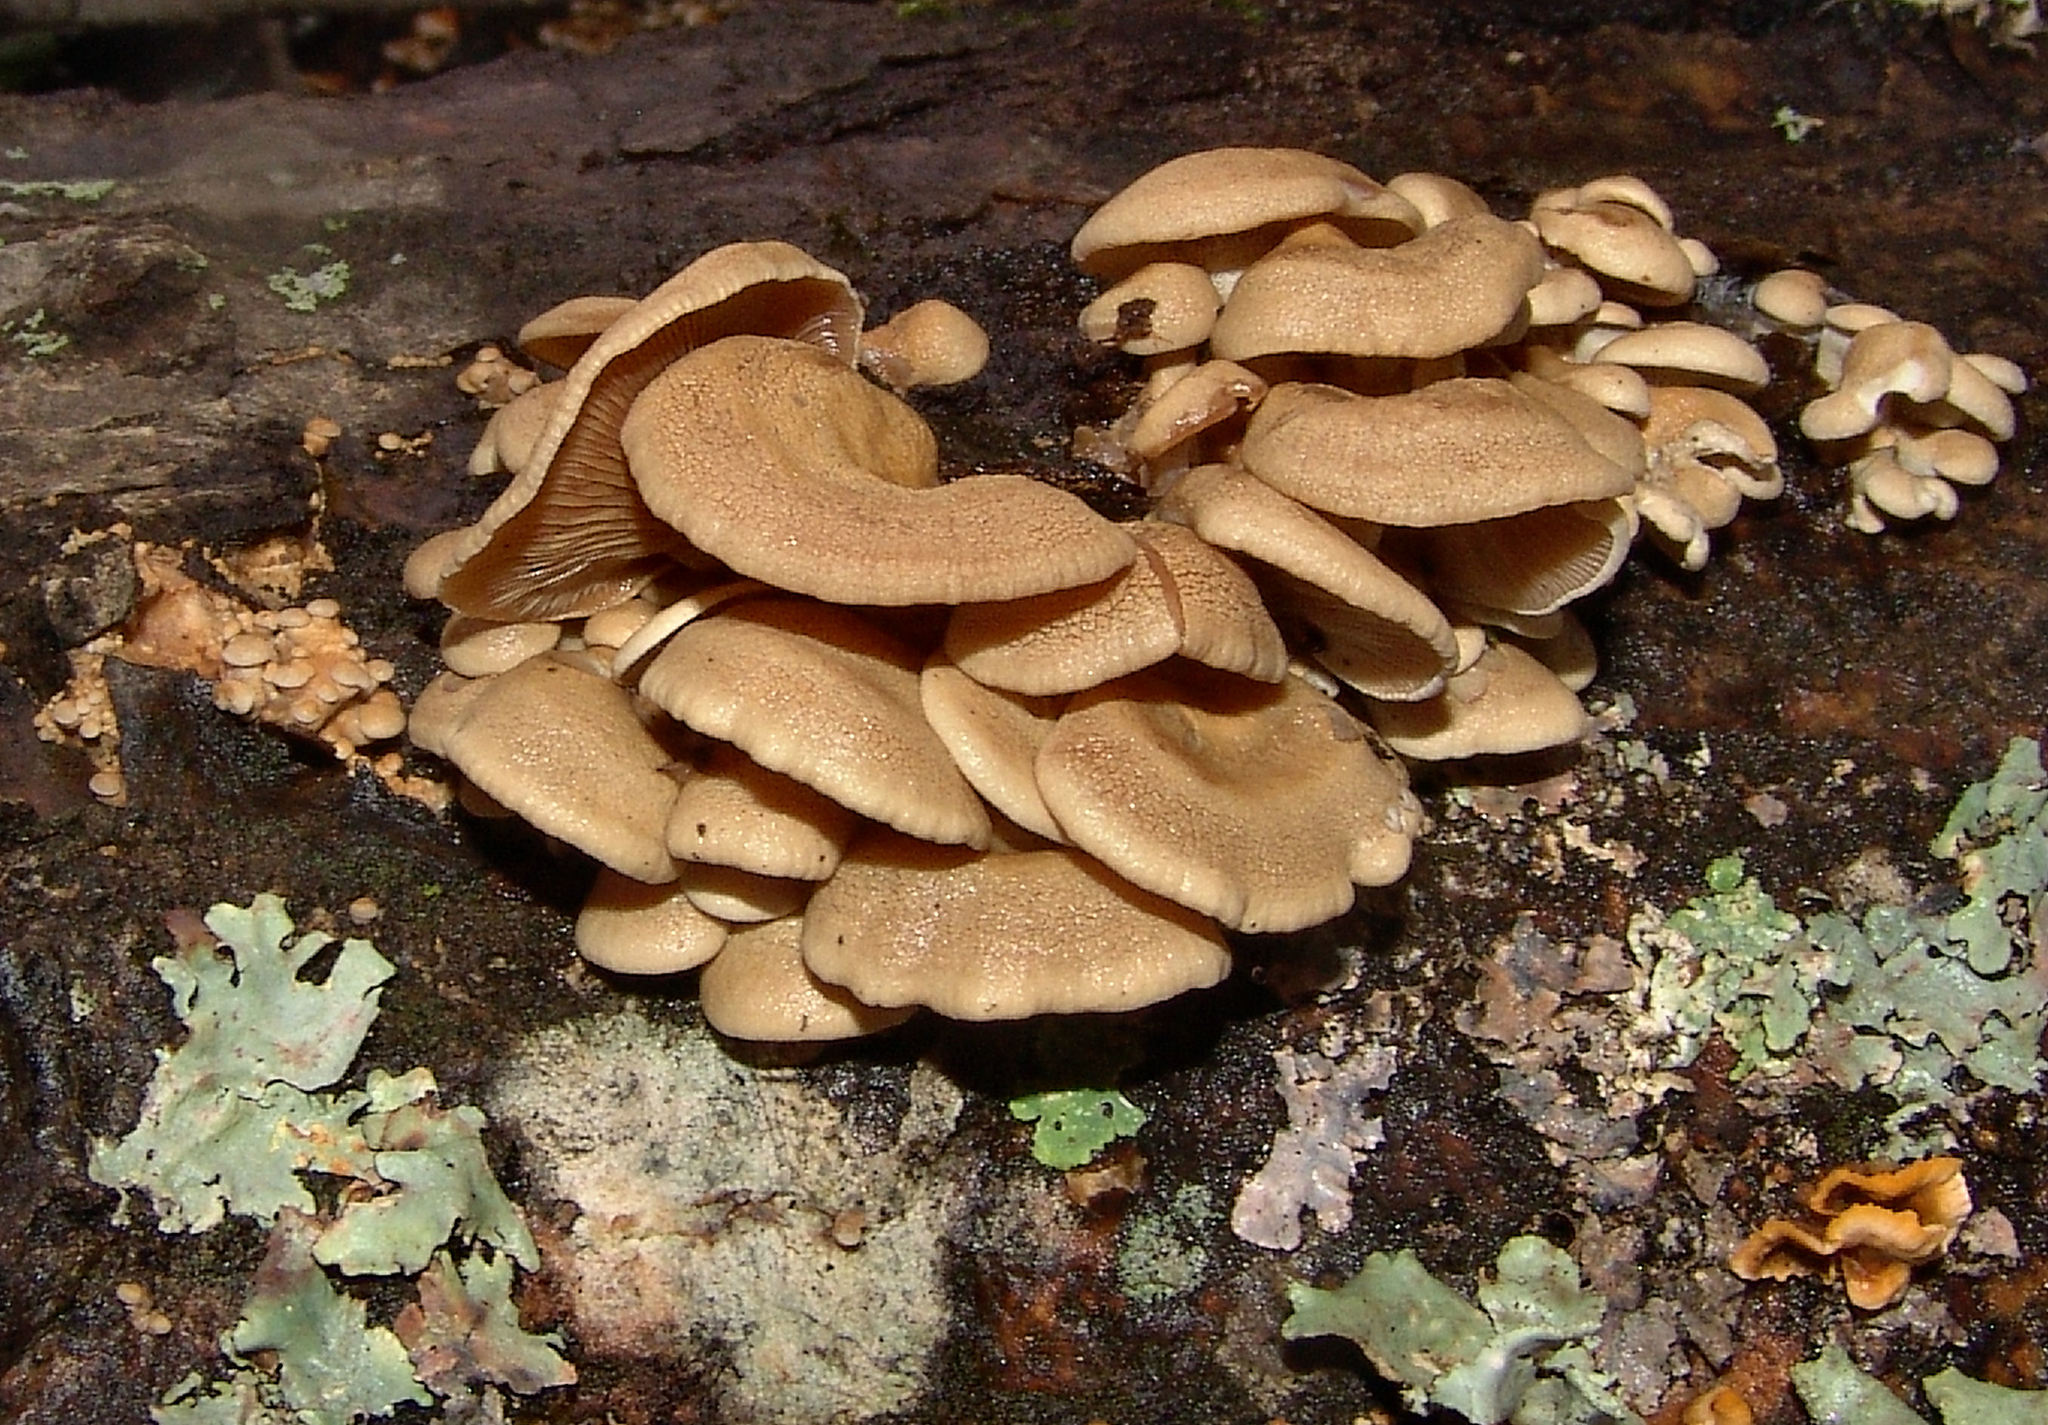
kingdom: Fungi
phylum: Basidiomycota
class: Agaricomycetes
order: Agaricales
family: Mycenaceae
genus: Panellus
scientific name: Panellus stipticus
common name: Bitter oysterling
